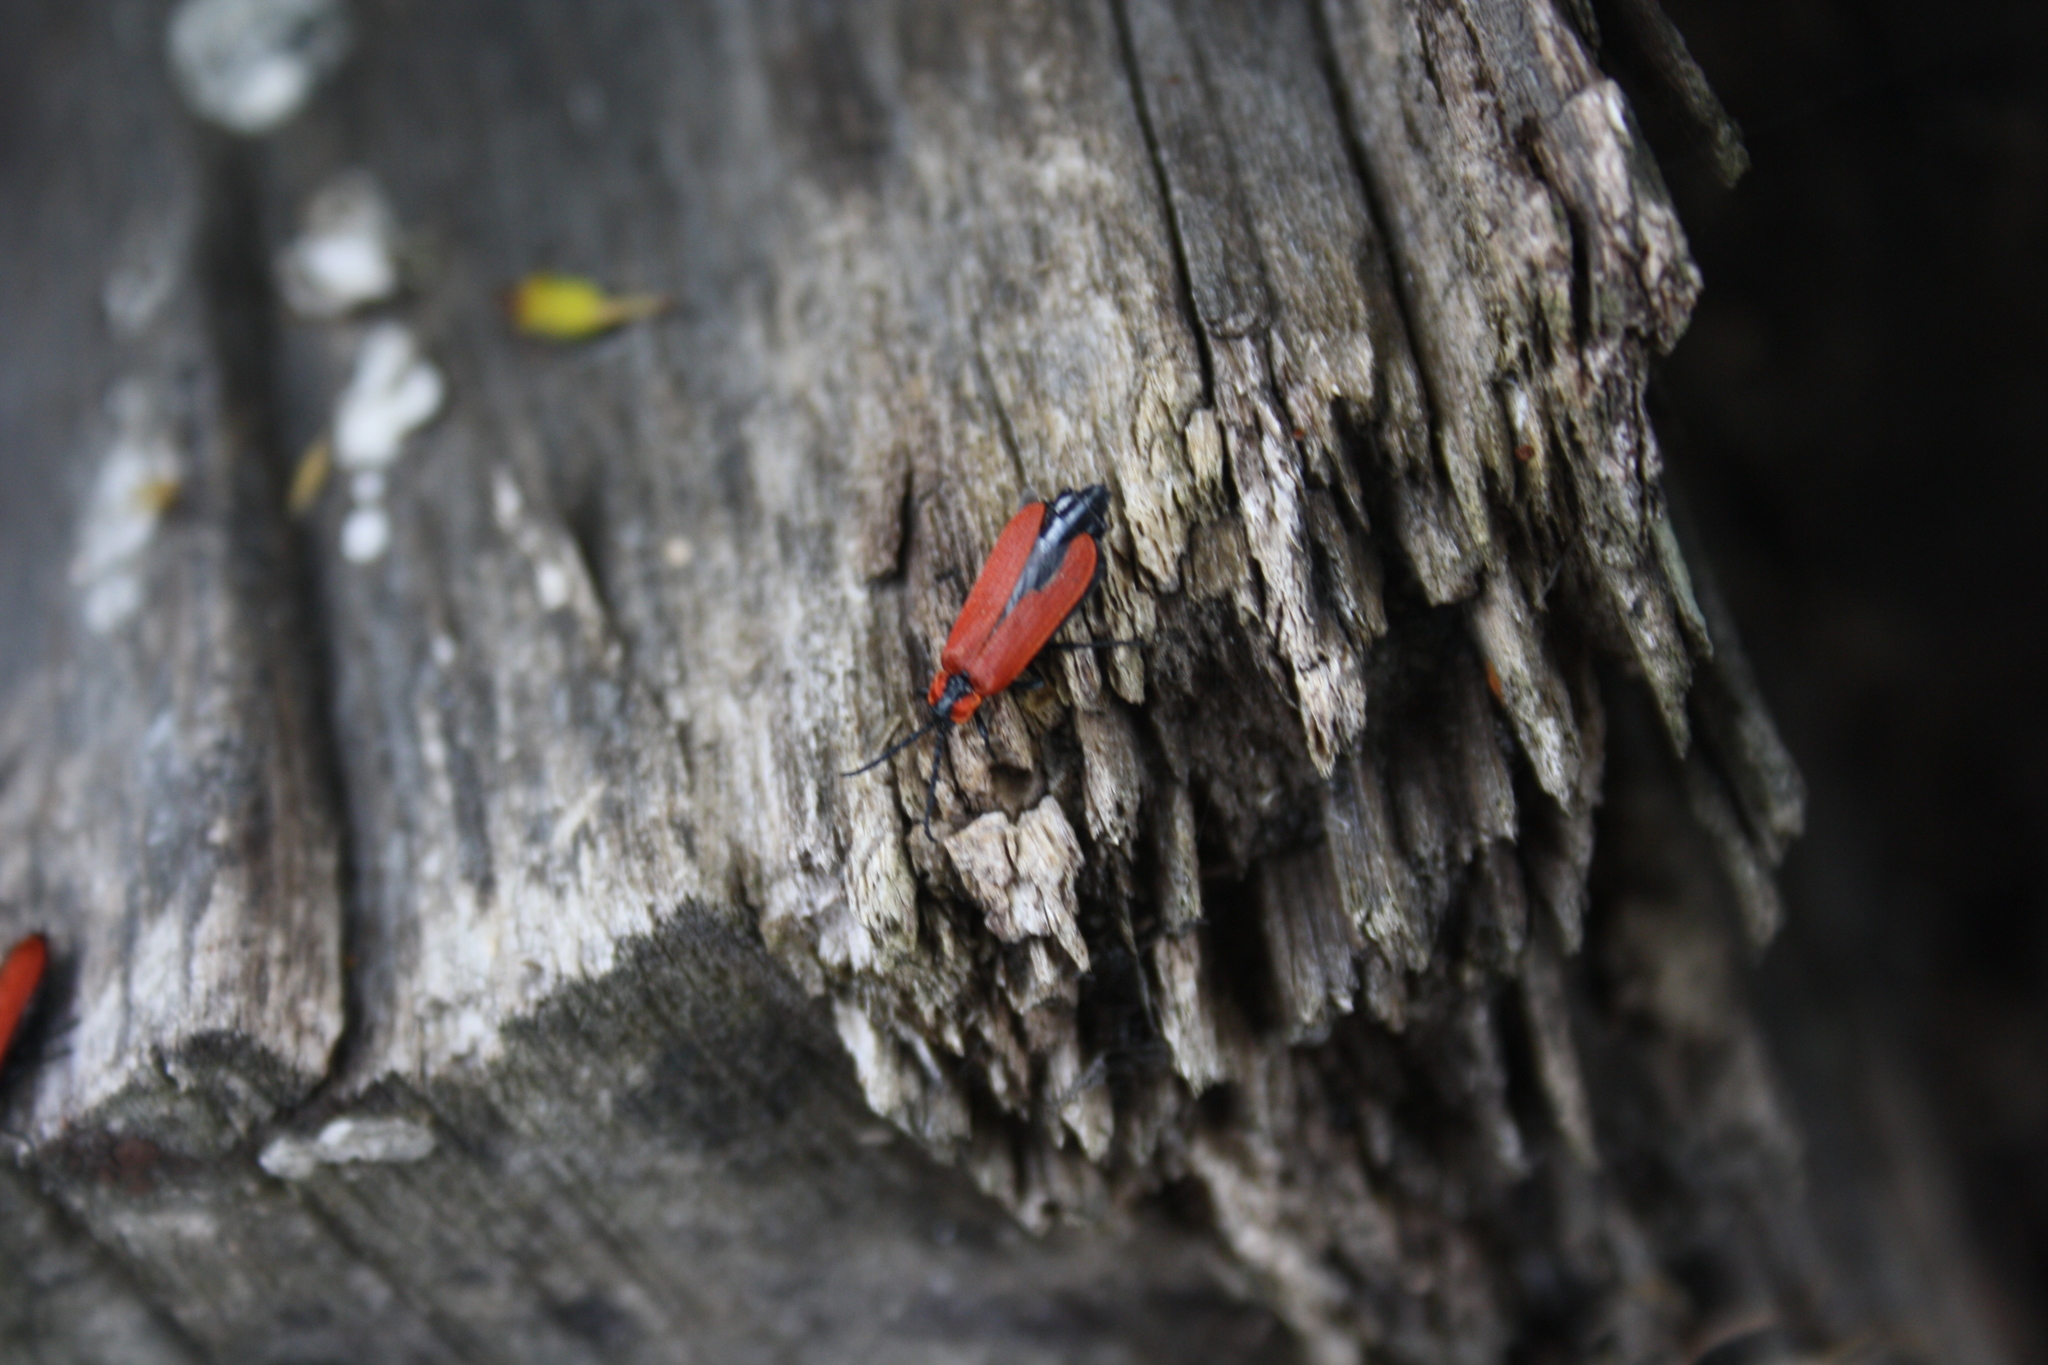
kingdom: Animalia
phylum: Arthropoda
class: Insecta
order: Coleoptera
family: Lycidae
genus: Lygistopterus
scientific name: Lygistopterus sanguineus
